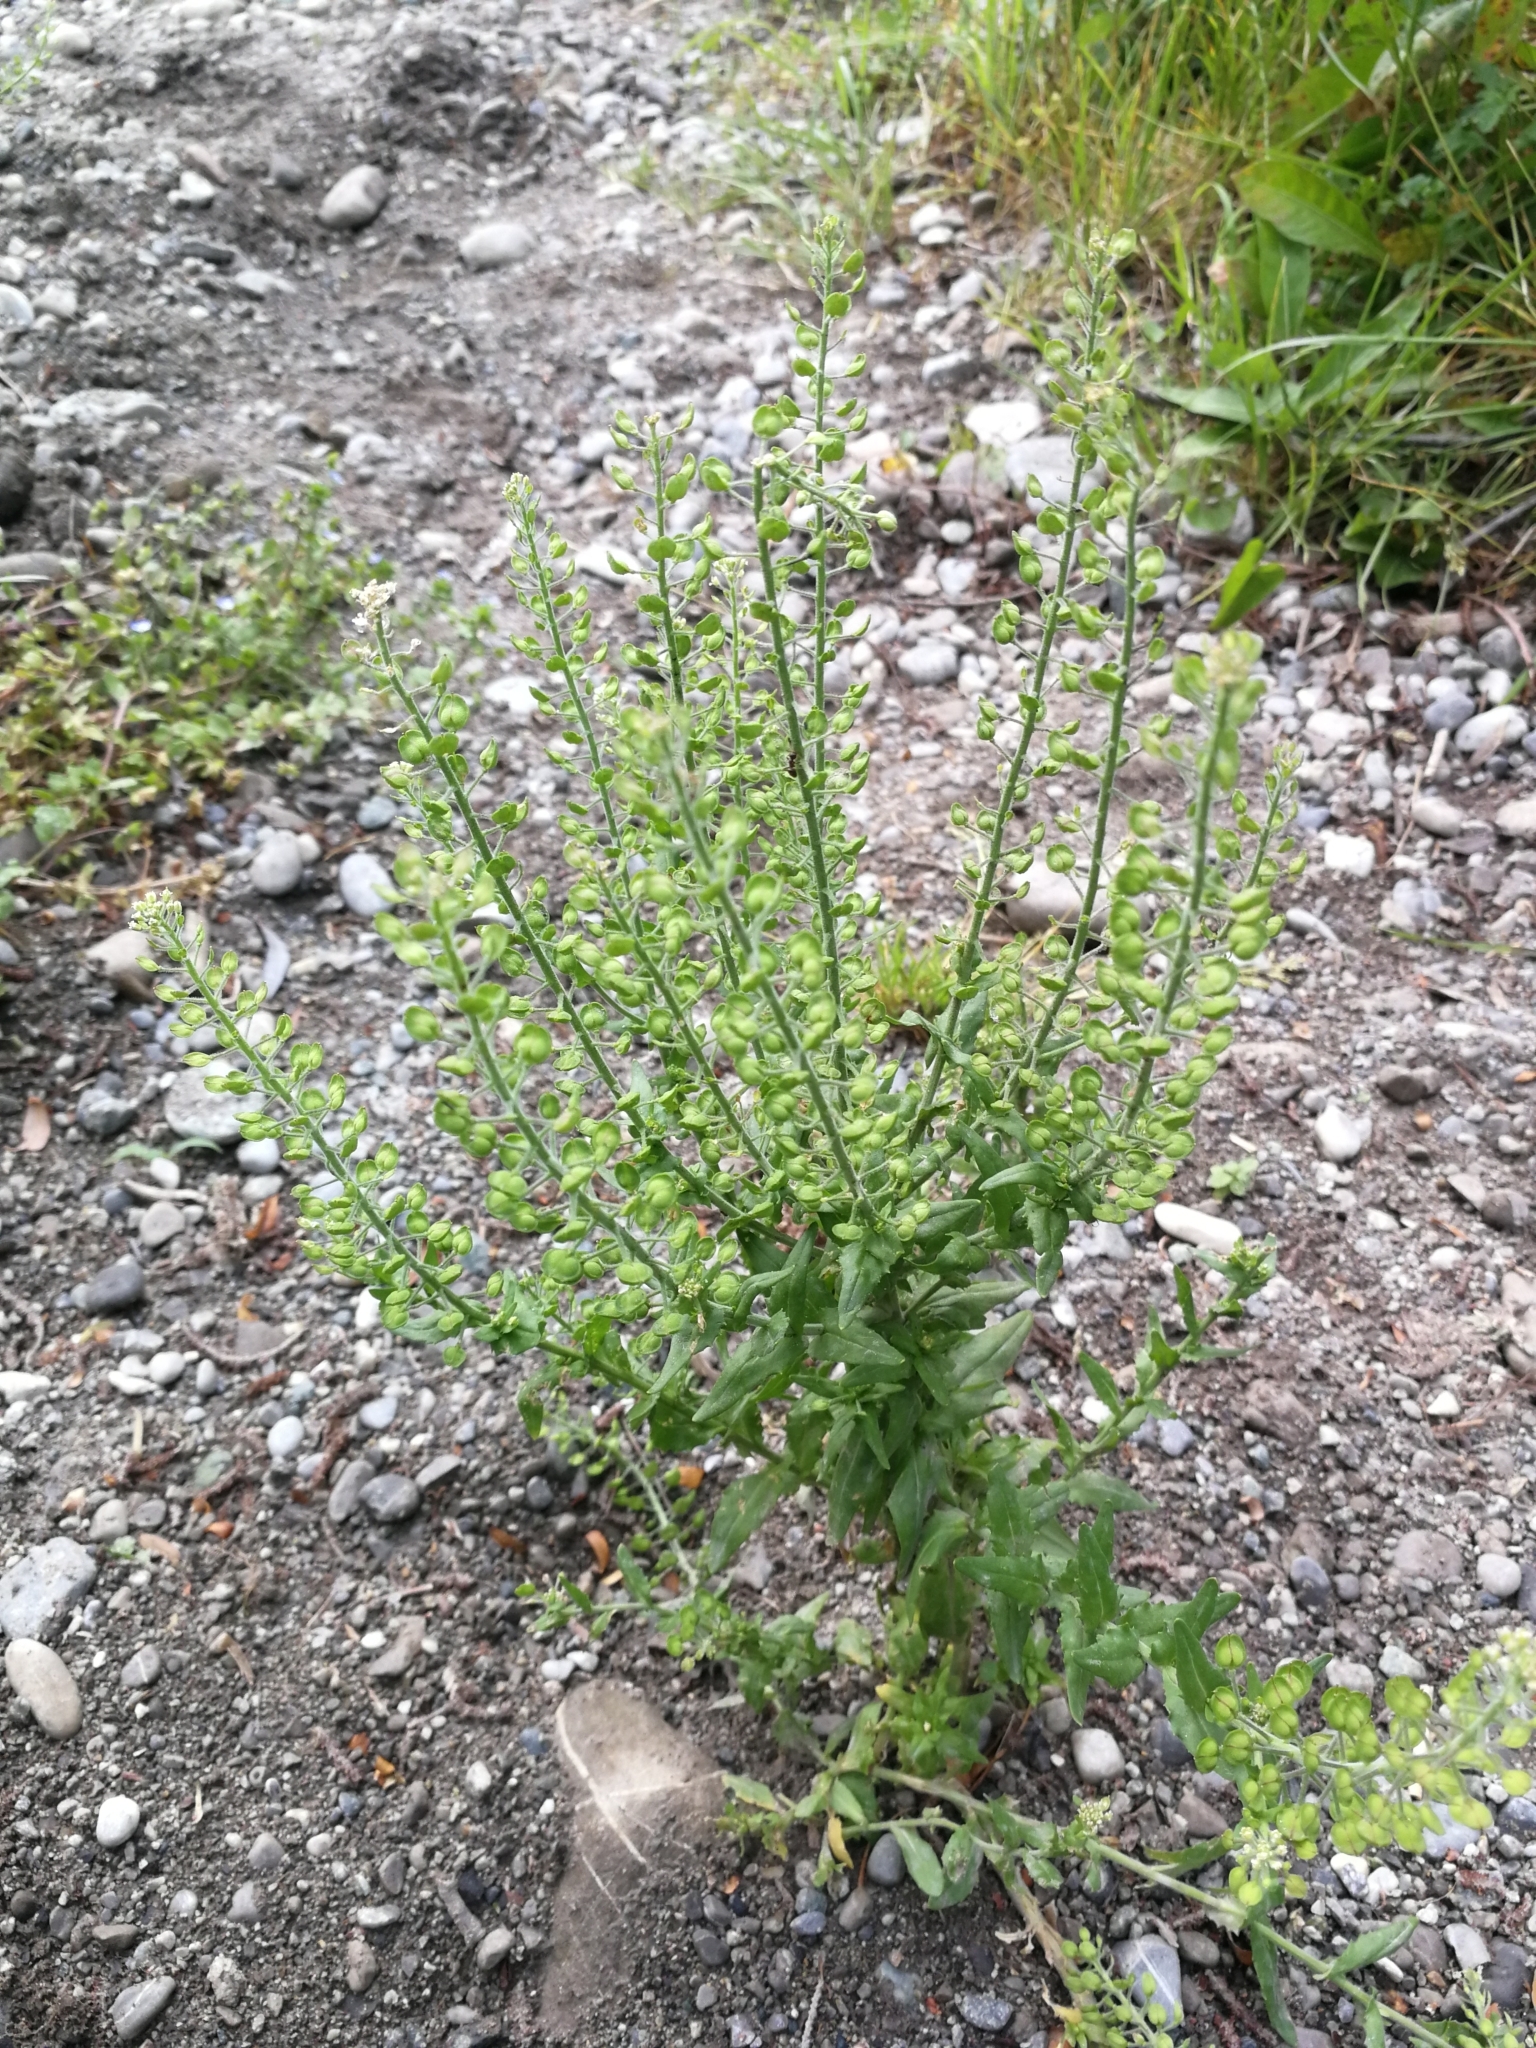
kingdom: Plantae
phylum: Tracheophyta
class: Magnoliopsida
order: Brassicales
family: Brassicaceae
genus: Lepidium
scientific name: Lepidium campestre
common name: Field pepperwort
